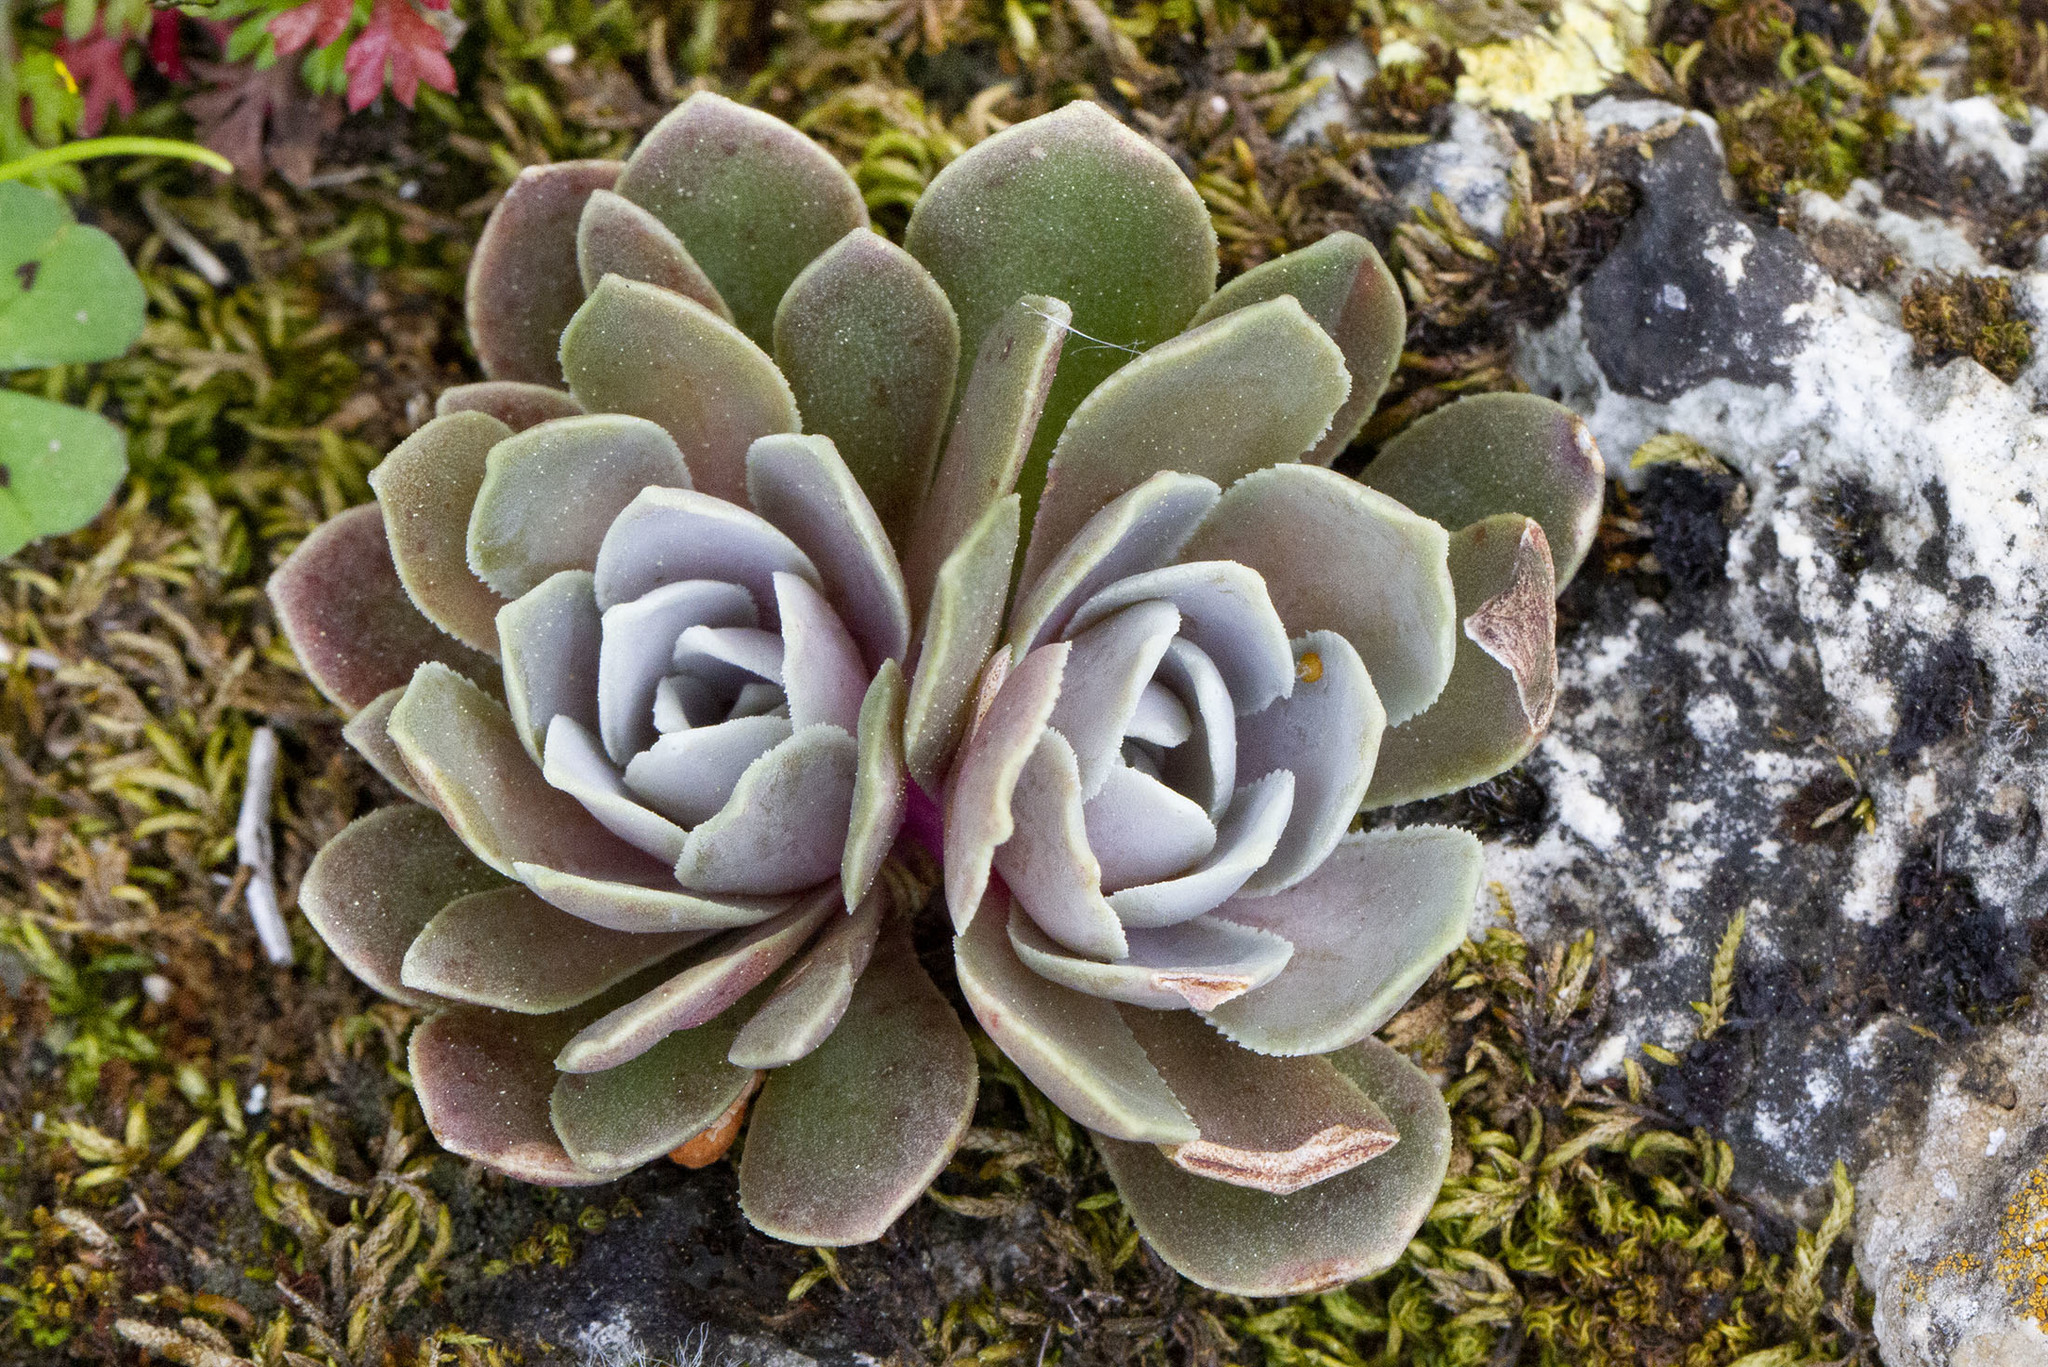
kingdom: Plantae
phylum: Tracheophyta
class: Magnoliopsida
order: Saxifragales
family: Crassulaceae
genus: Rosularia
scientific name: Rosularia serrata
